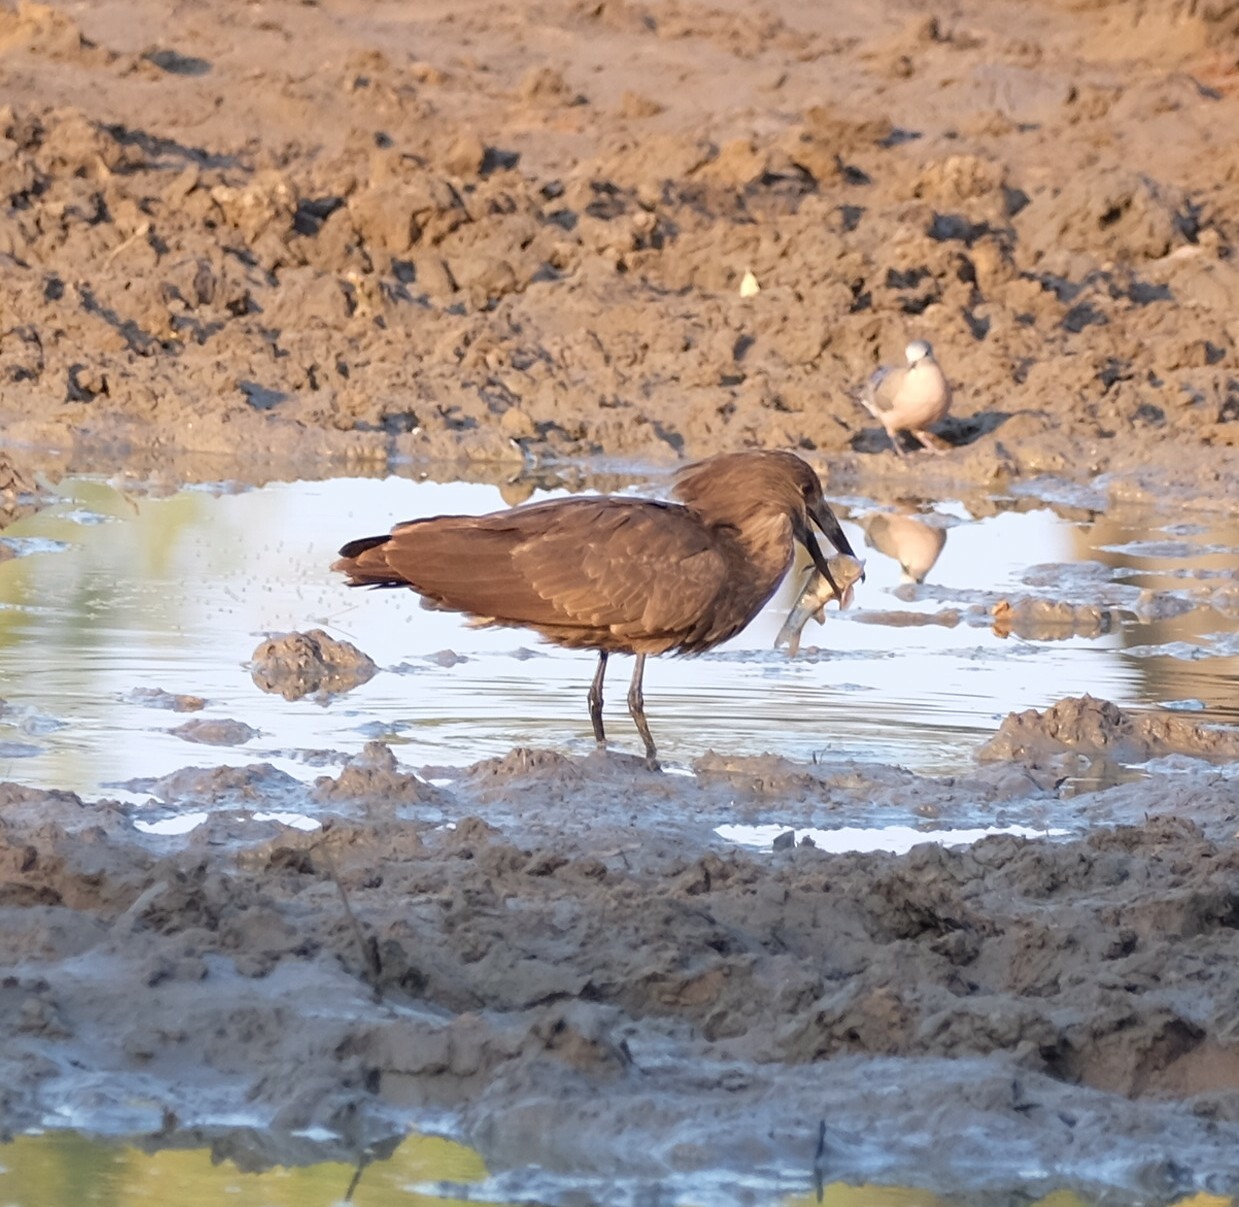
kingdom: Animalia
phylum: Chordata
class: Aves
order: Pelecaniformes
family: Scopidae
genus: Scopus
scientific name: Scopus umbretta
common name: Hamerkop
